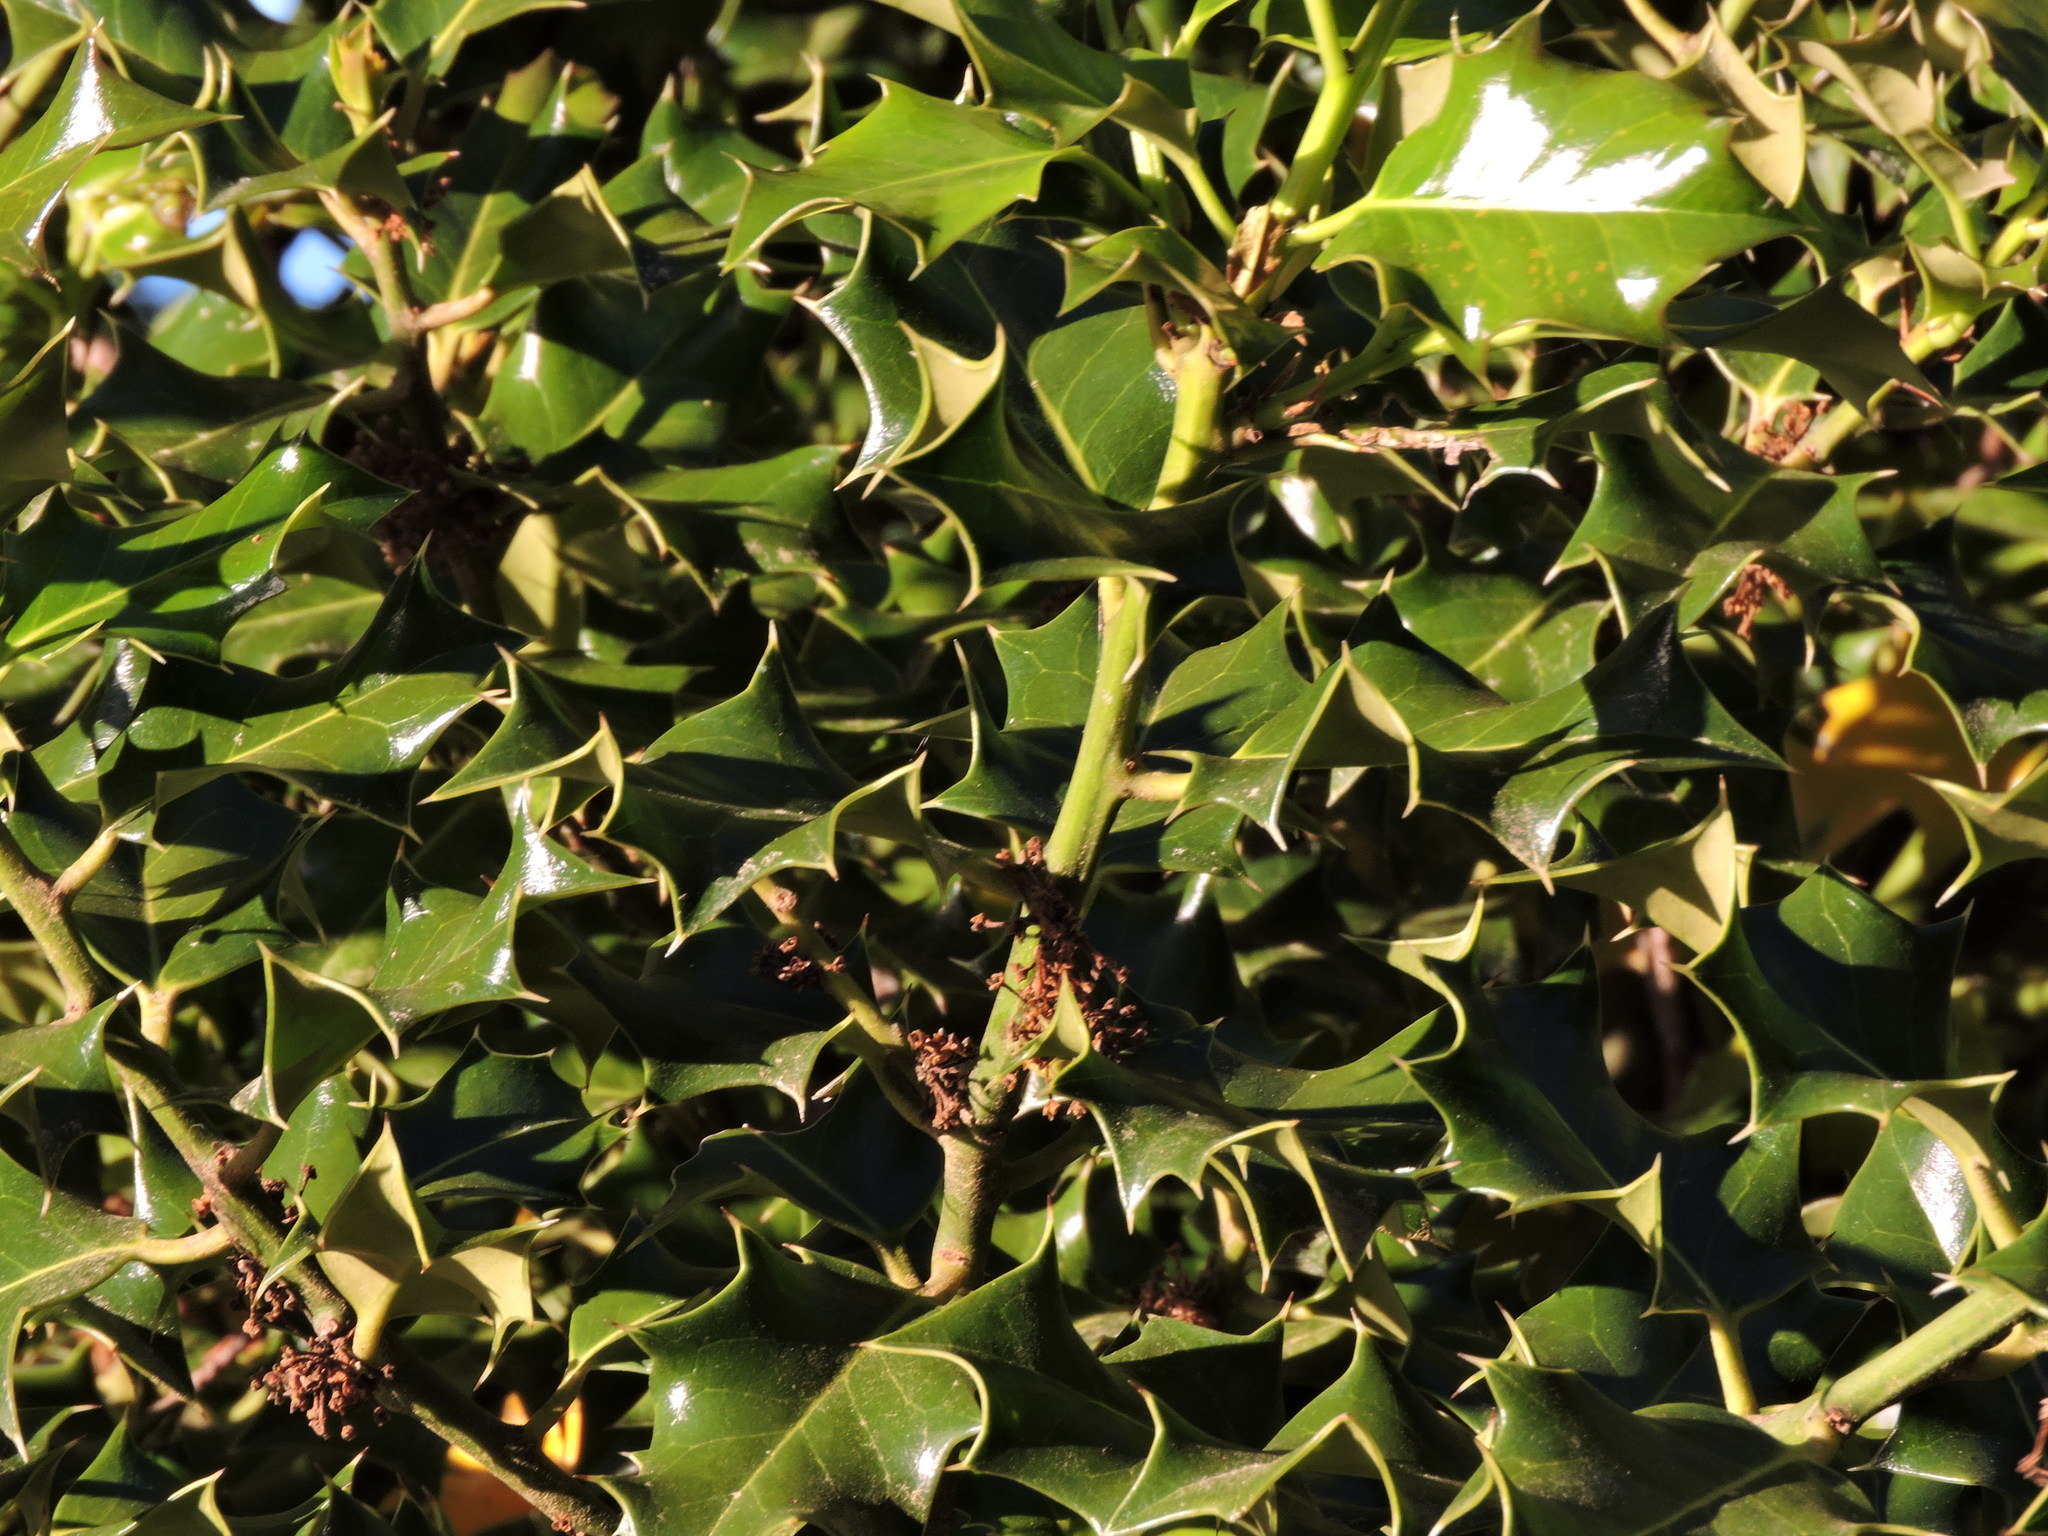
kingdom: Plantae
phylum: Tracheophyta
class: Magnoliopsida
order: Aquifoliales
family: Aquifoliaceae
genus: Ilex
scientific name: Ilex aquifolium
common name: English holly
